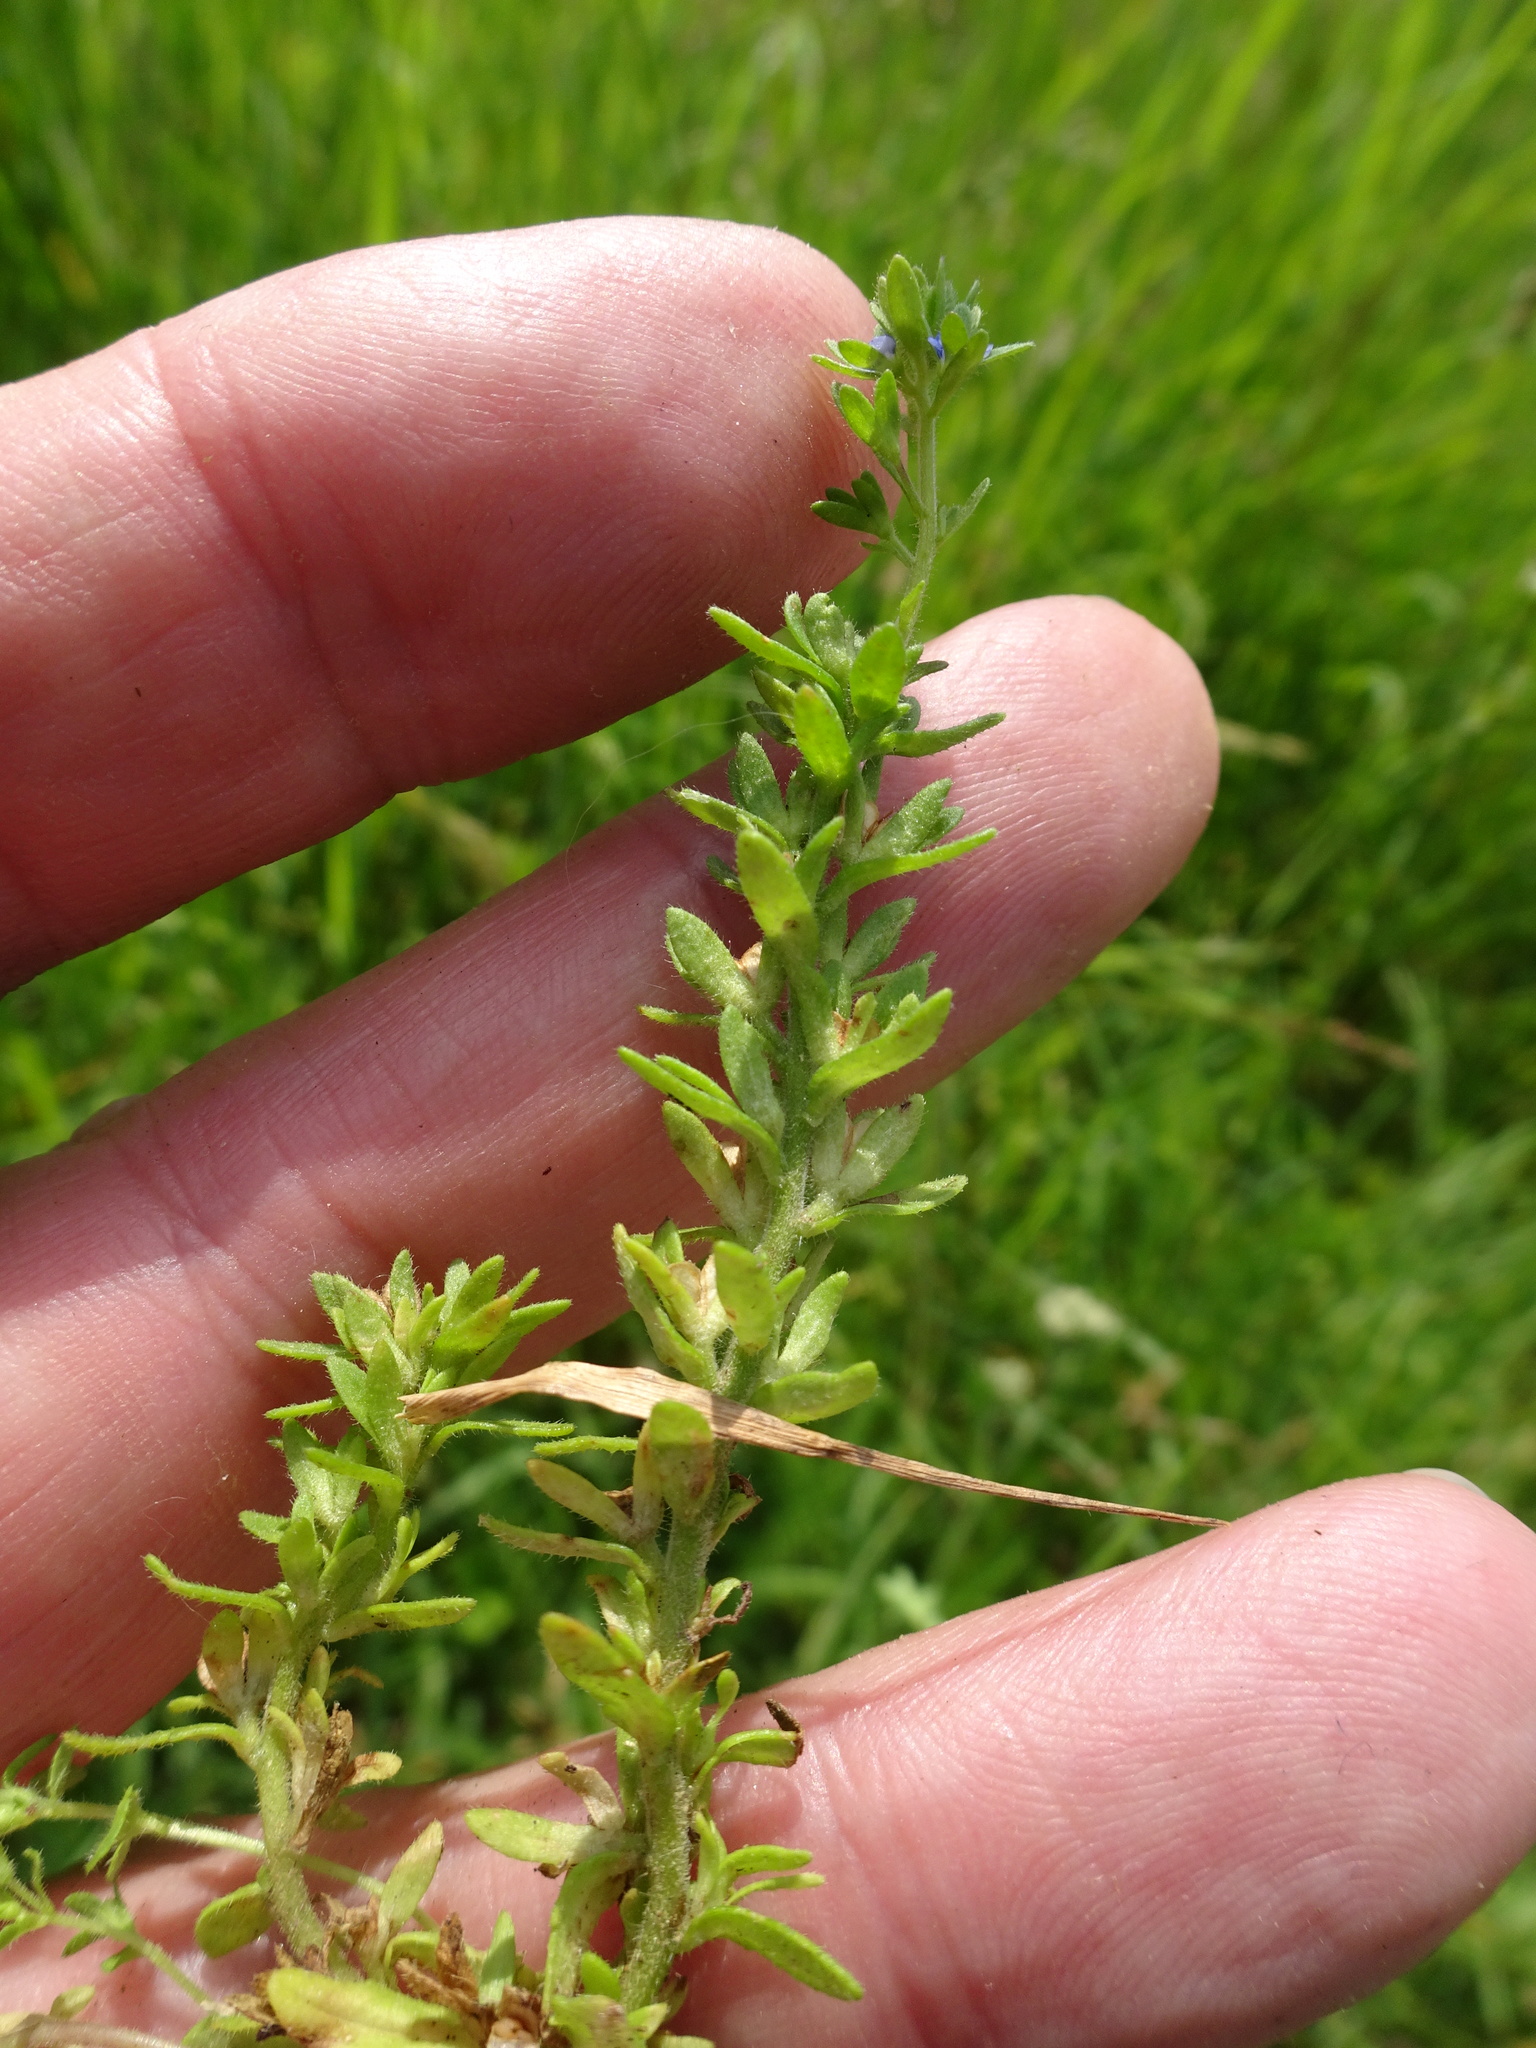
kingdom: Plantae
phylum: Tracheophyta
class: Magnoliopsida
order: Lamiales
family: Plantaginaceae
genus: Veronica
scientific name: Veronica arvensis
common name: Corn speedwell
